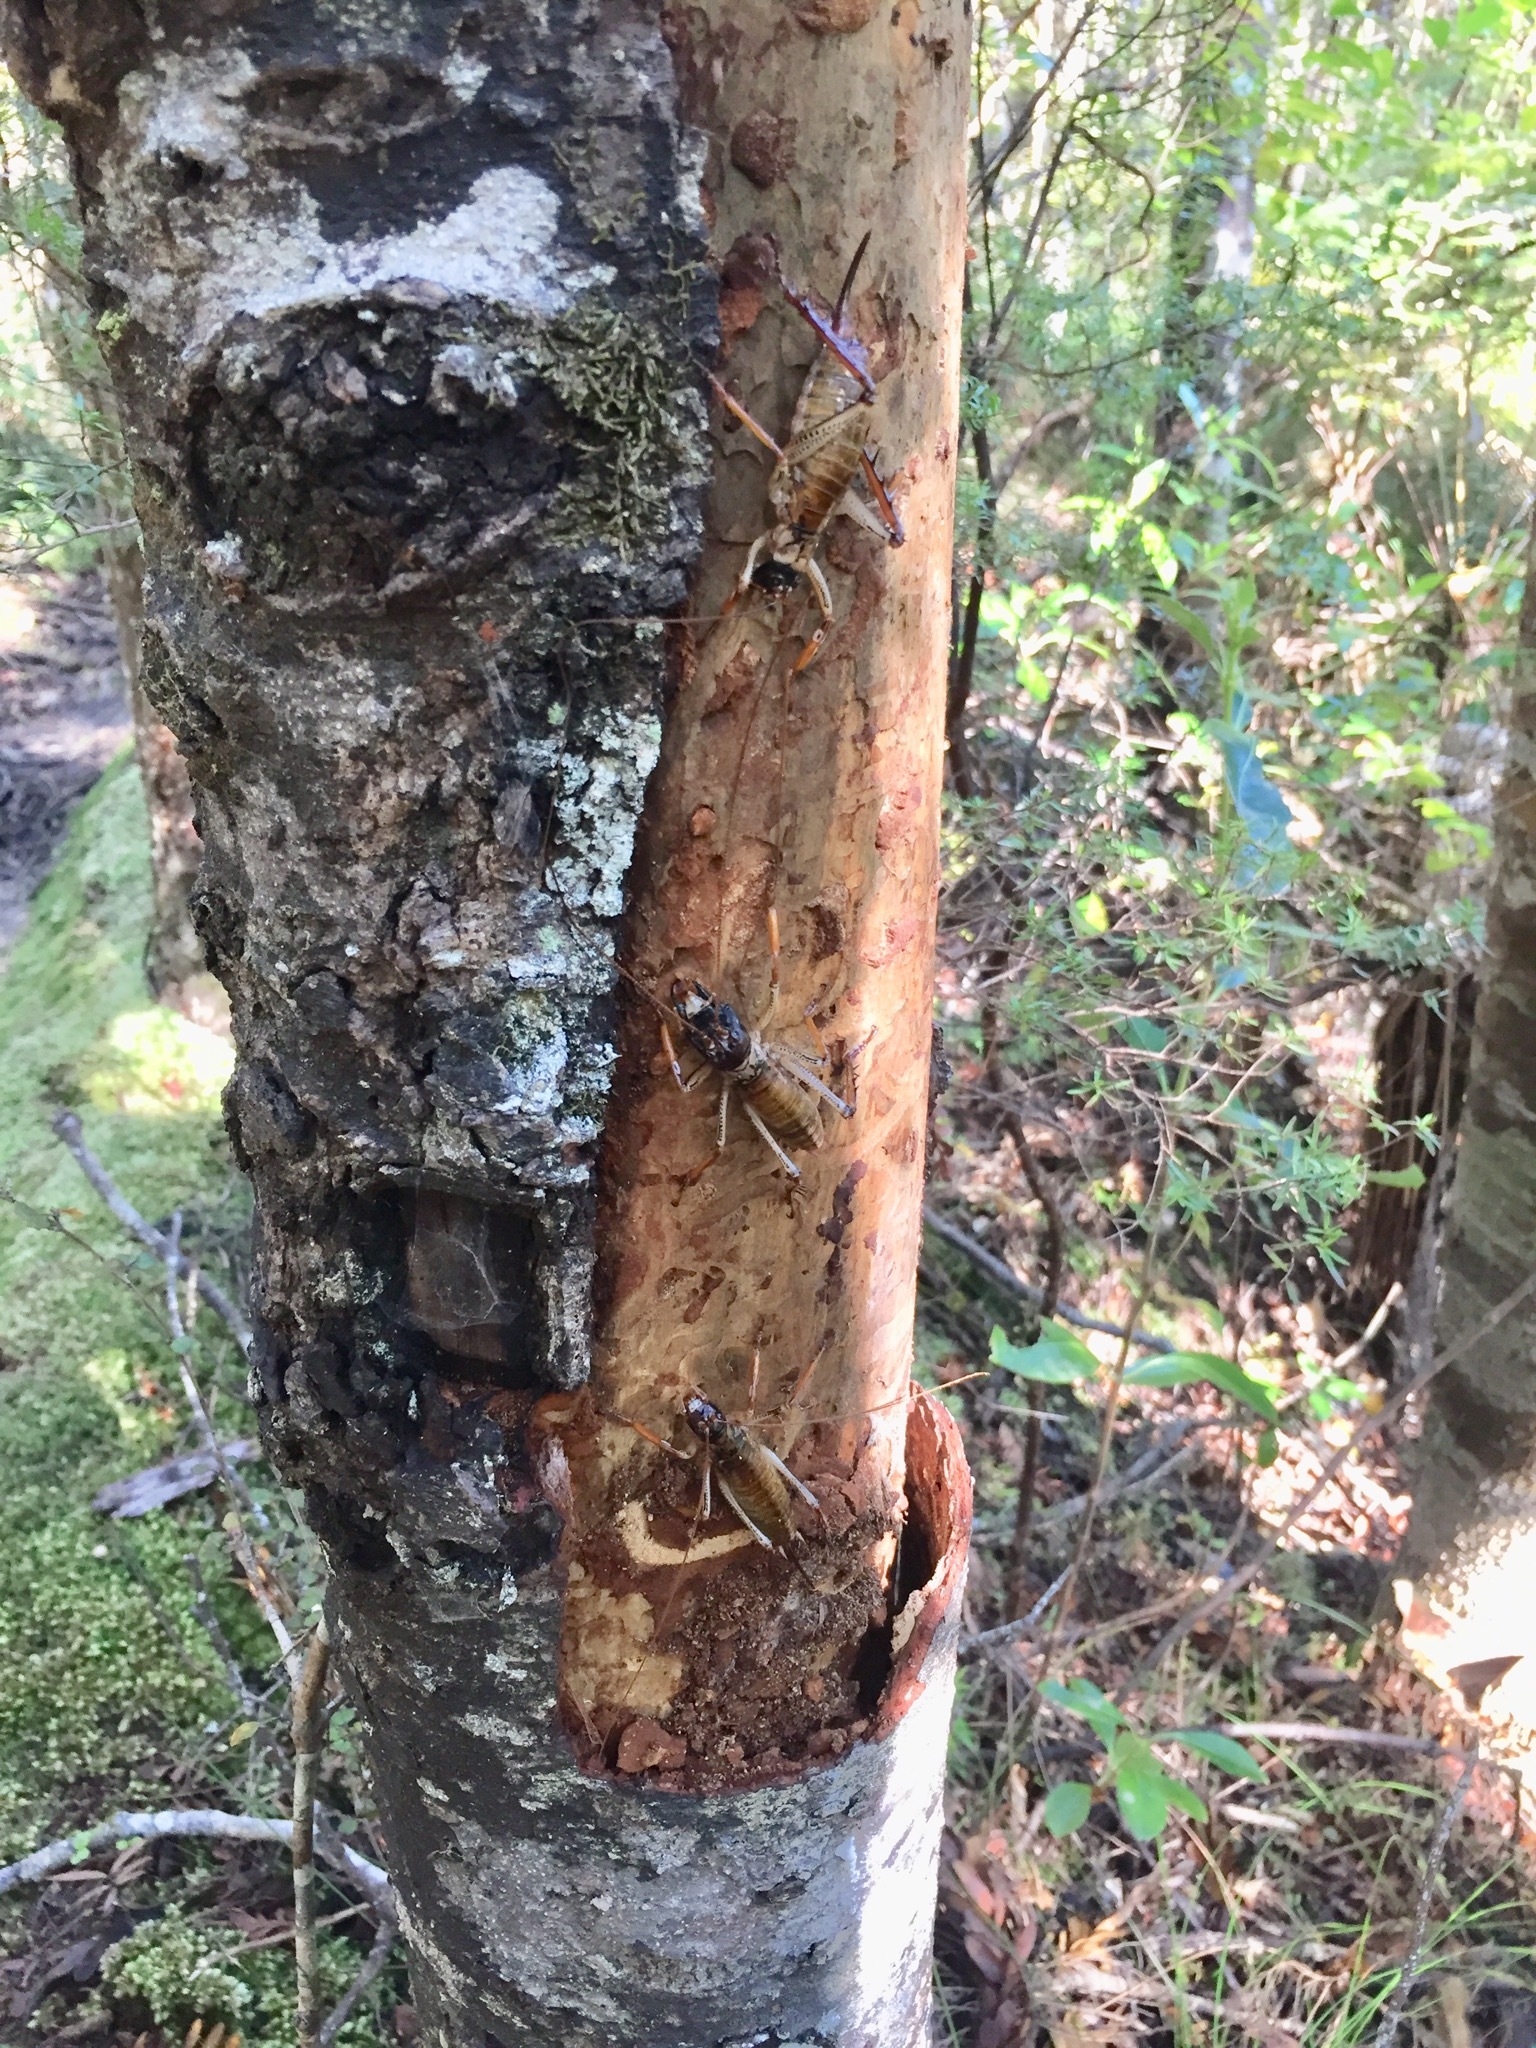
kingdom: Animalia
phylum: Arthropoda
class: Insecta
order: Orthoptera
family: Anostostomatidae
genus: Hemideina
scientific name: Hemideina thoracica
